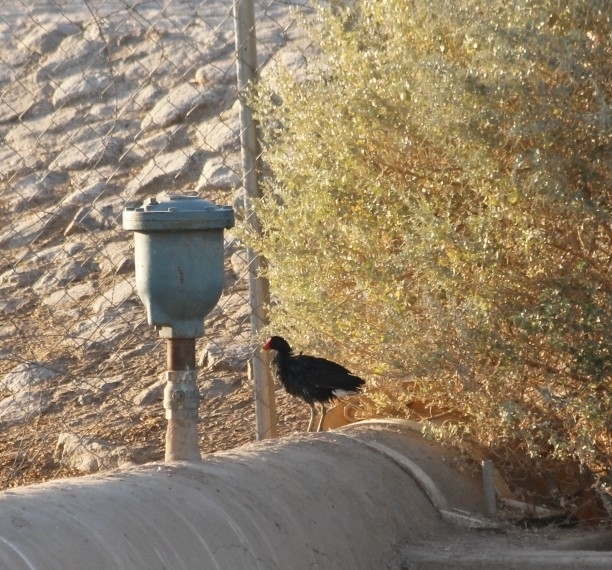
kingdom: Animalia
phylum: Chordata
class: Aves
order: Gruiformes
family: Rallidae
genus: Gallinula
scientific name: Gallinula chloropus
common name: Common moorhen
